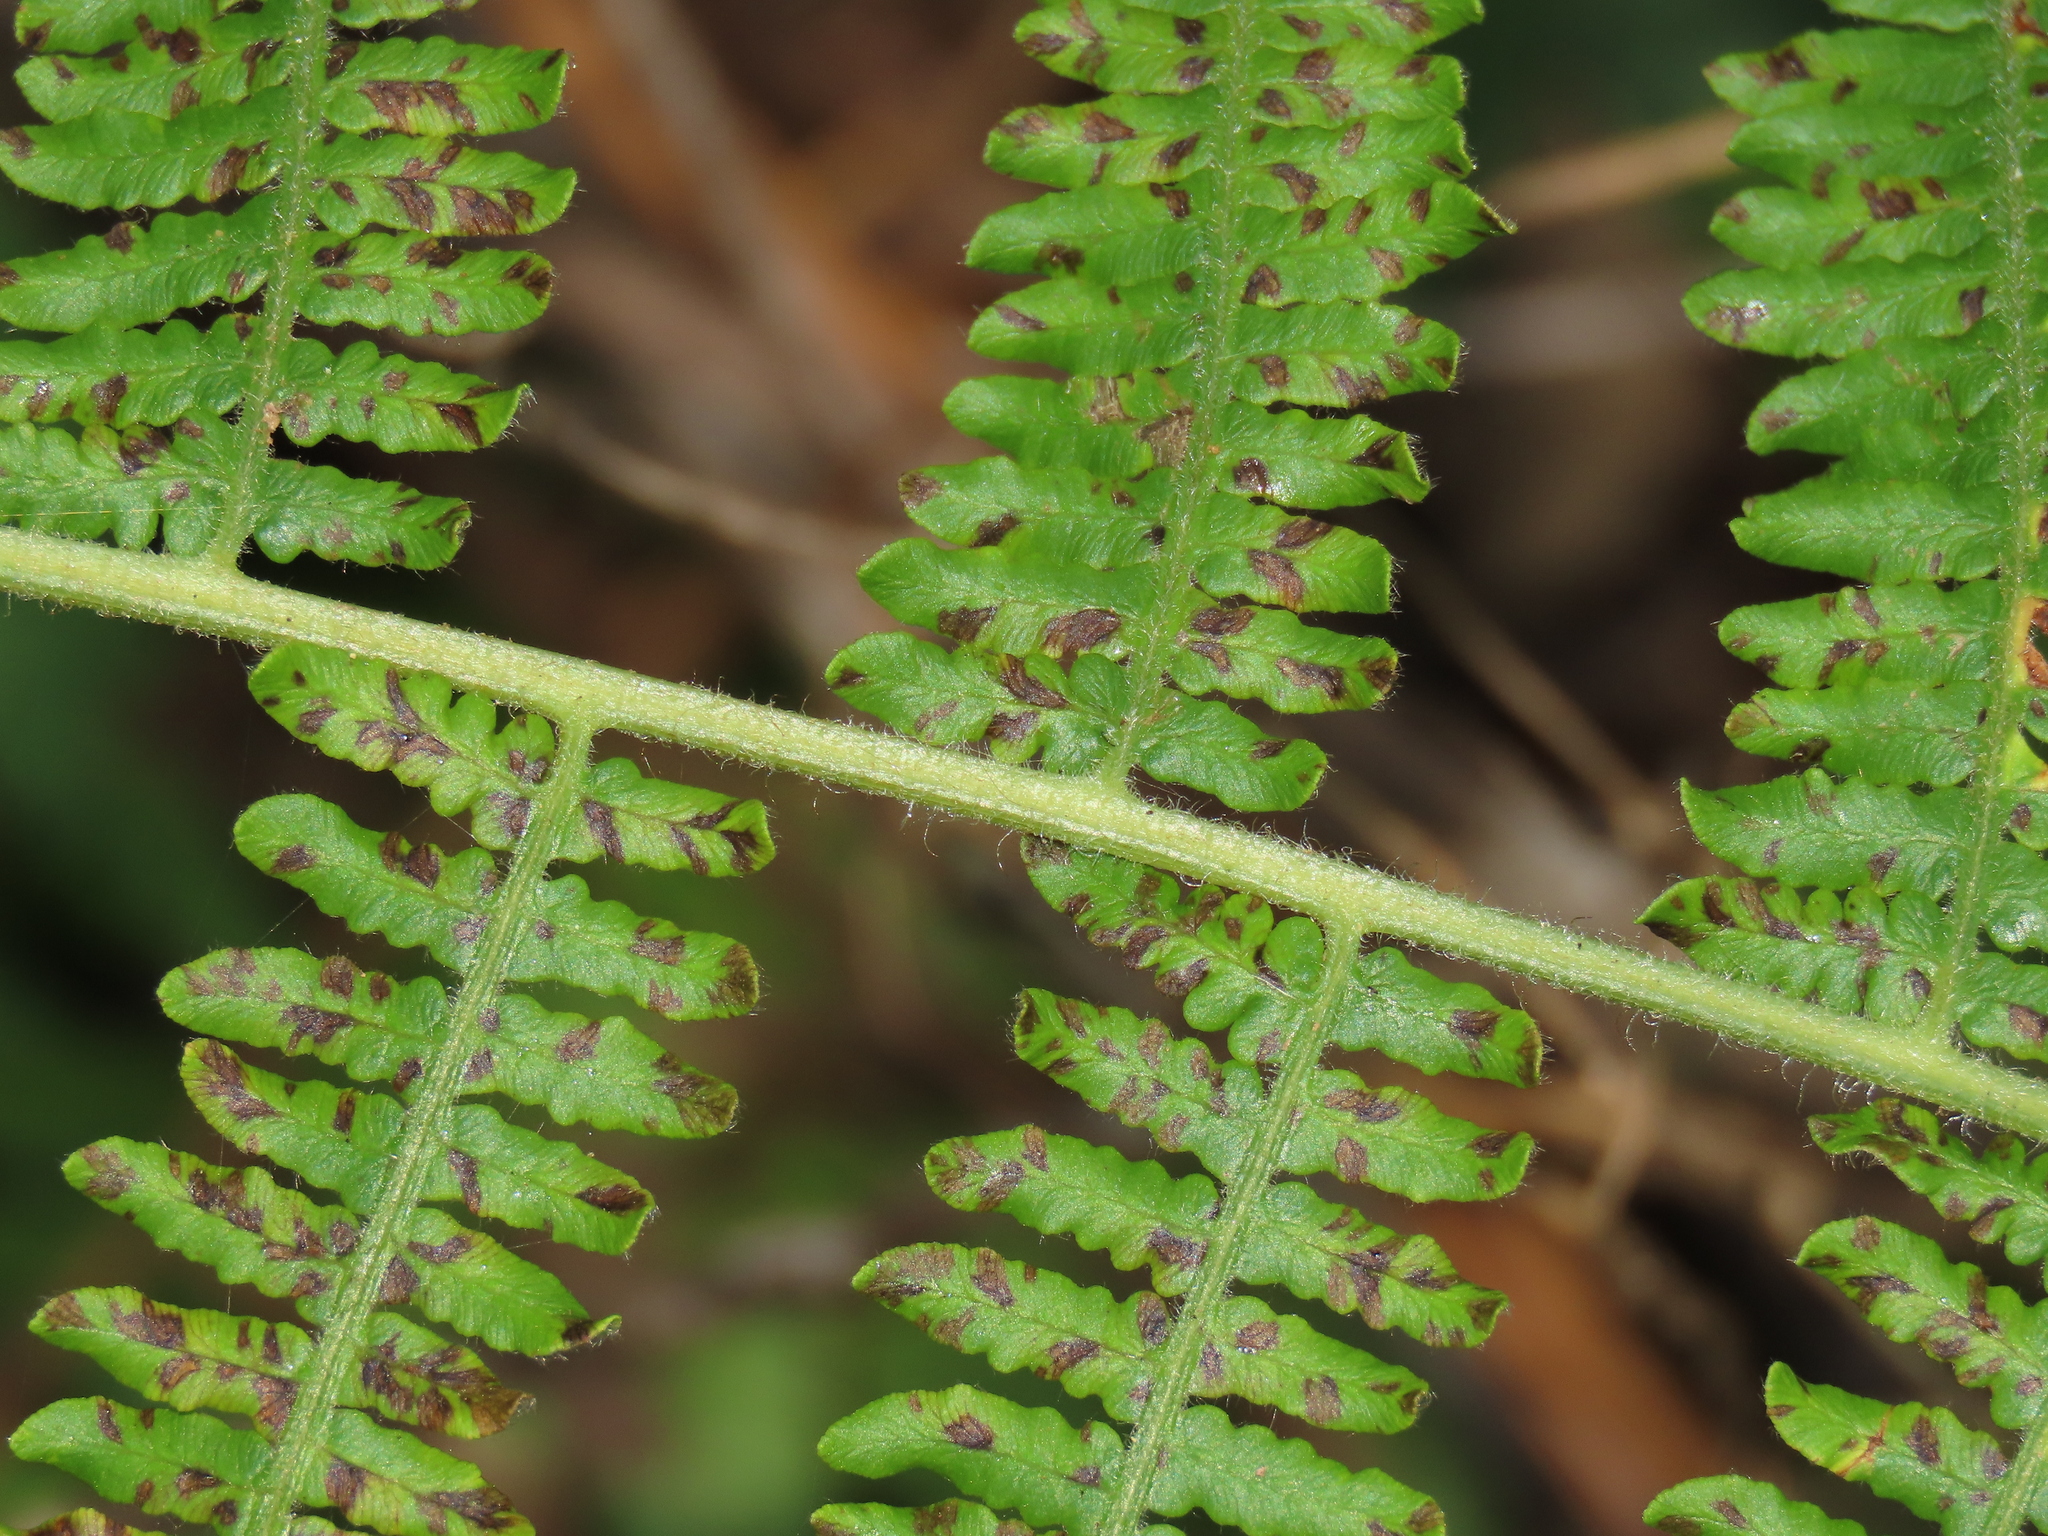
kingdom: Plantae
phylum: Tracheophyta
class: Polypodiopsida
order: Polypodiales
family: Dennstaedtiaceae
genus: Pteridium
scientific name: Pteridium aquilinum
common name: Bracken
